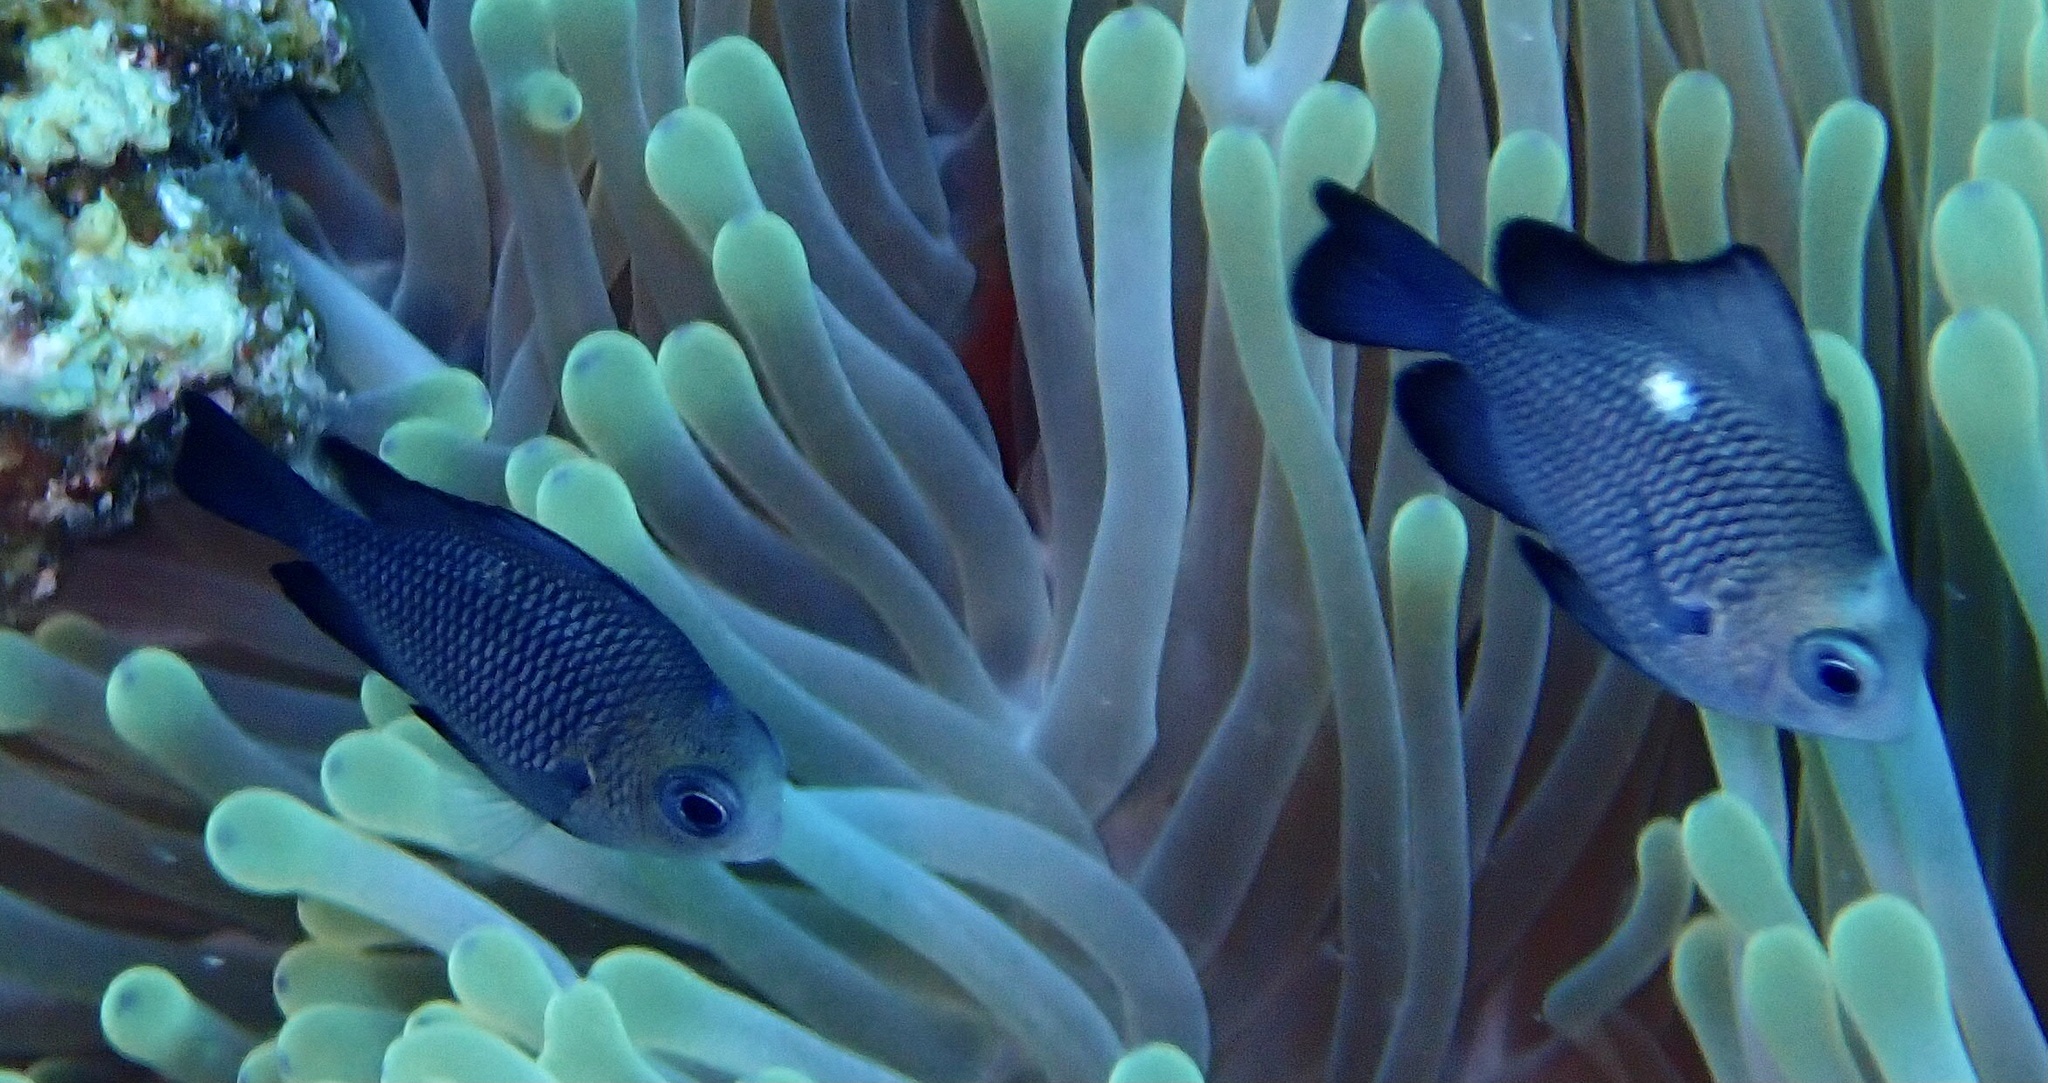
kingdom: Animalia
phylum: Chordata
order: Perciformes
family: Pomacentridae
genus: Dascyllus
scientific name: Dascyllus trimaculatus
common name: Threespot dascyllus
